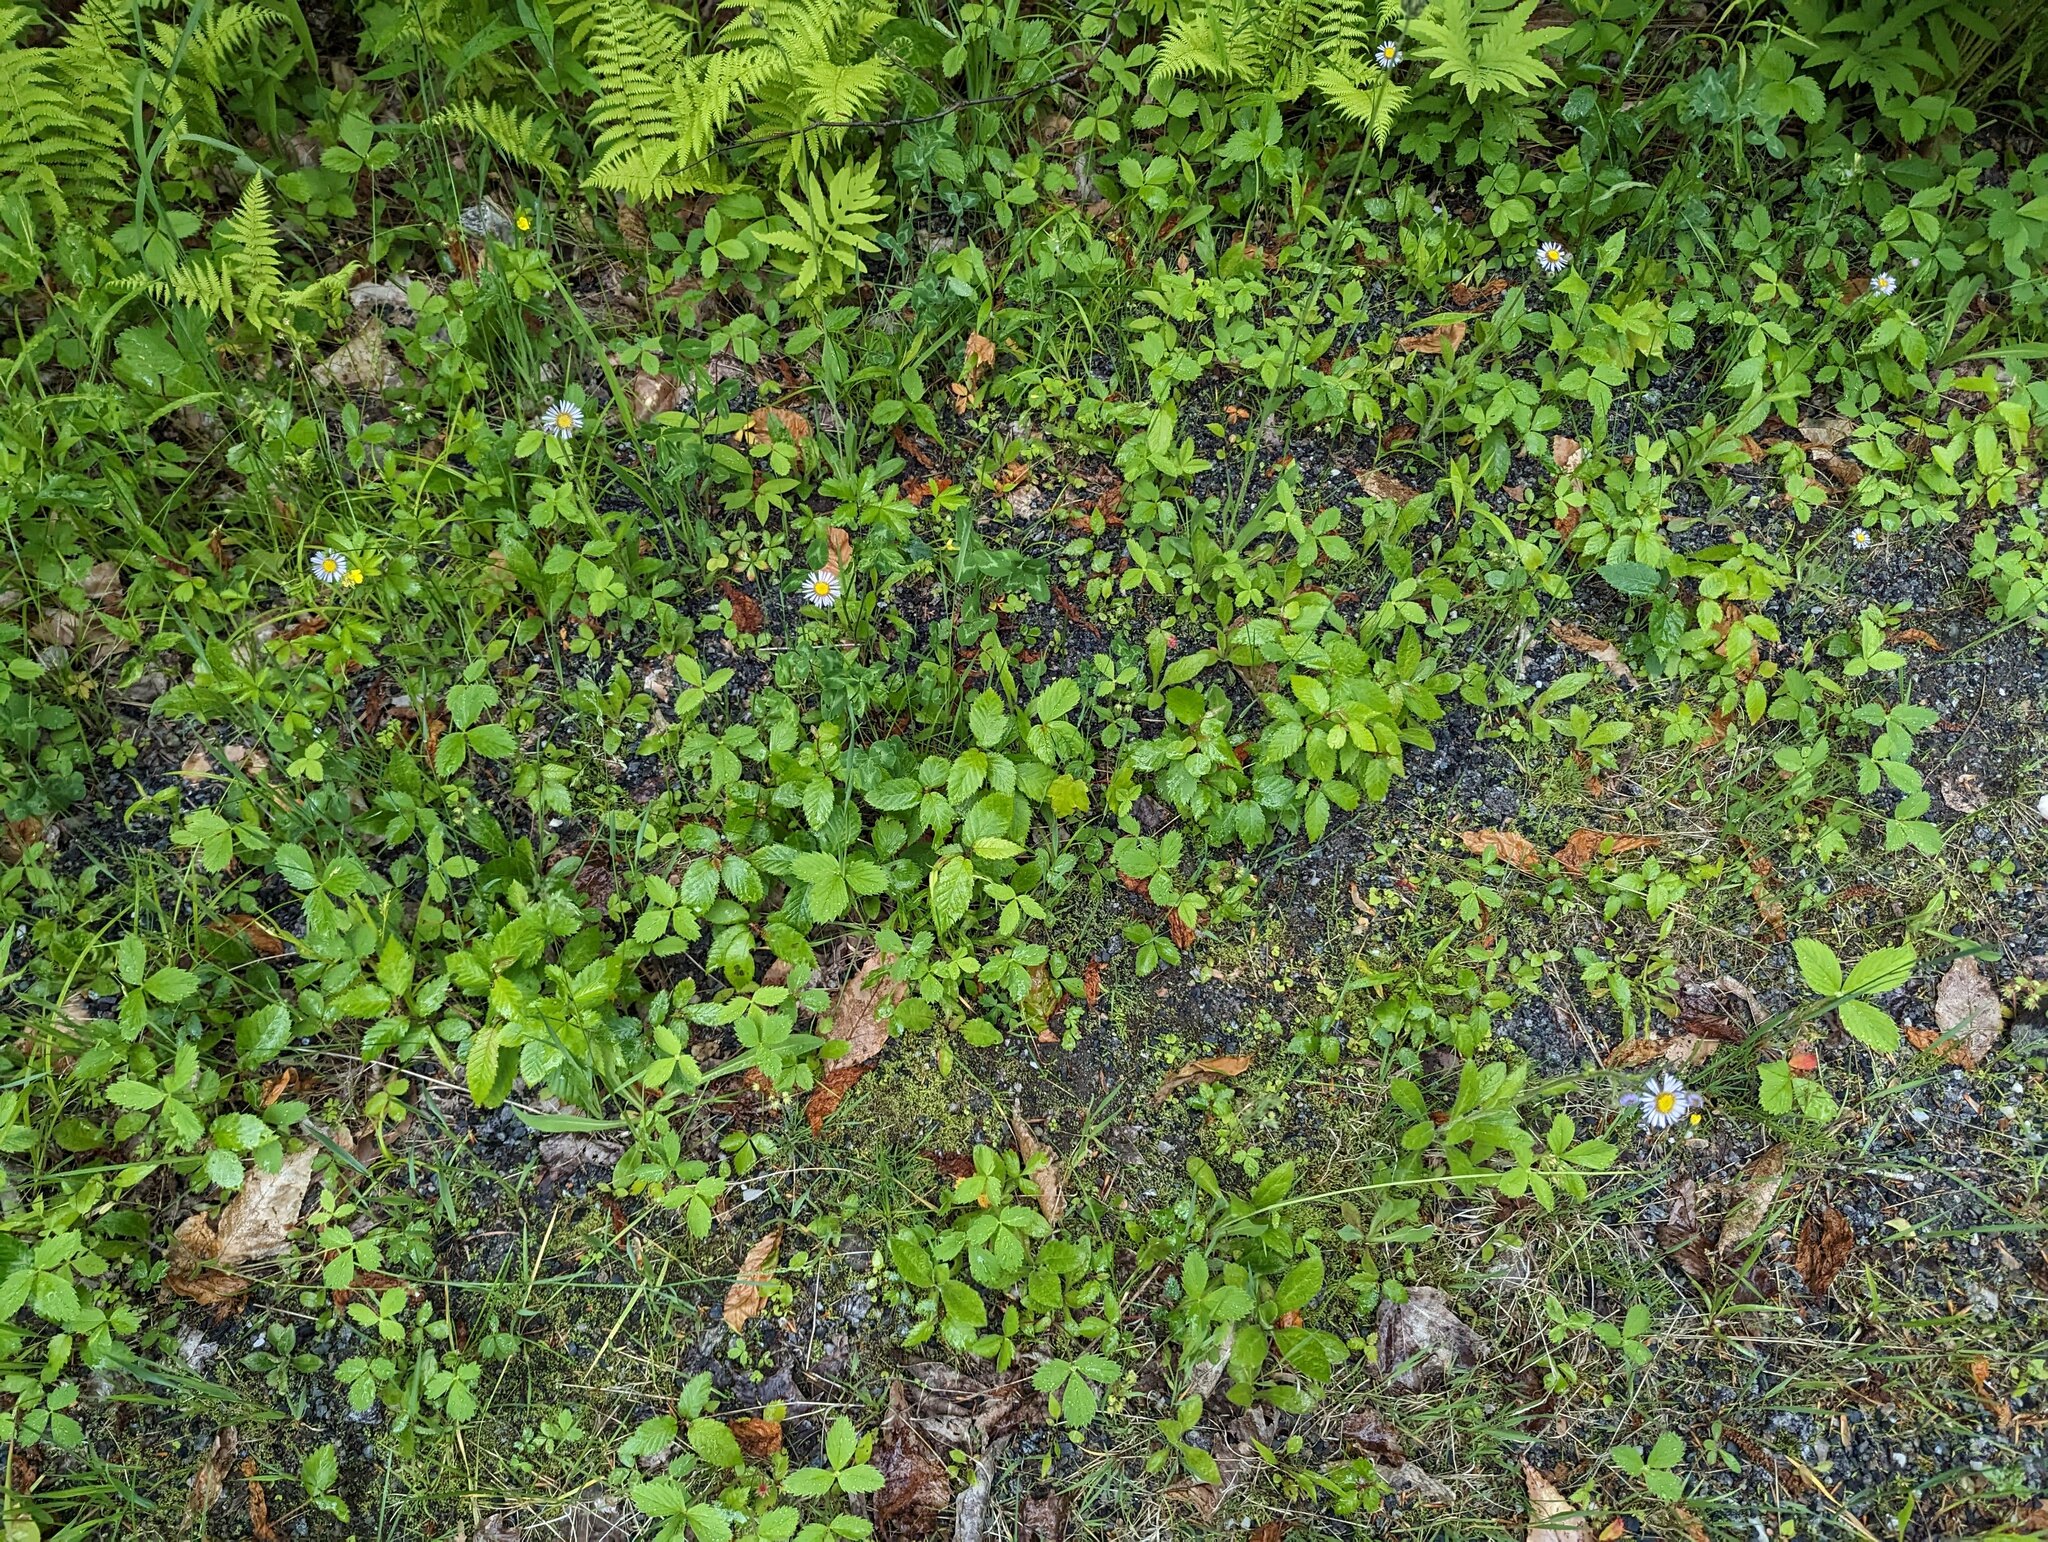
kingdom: Plantae
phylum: Tracheophyta
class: Magnoliopsida
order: Asterales
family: Asteraceae
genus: Erigeron
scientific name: Erigeron pulchellus
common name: Hairy fleabane
